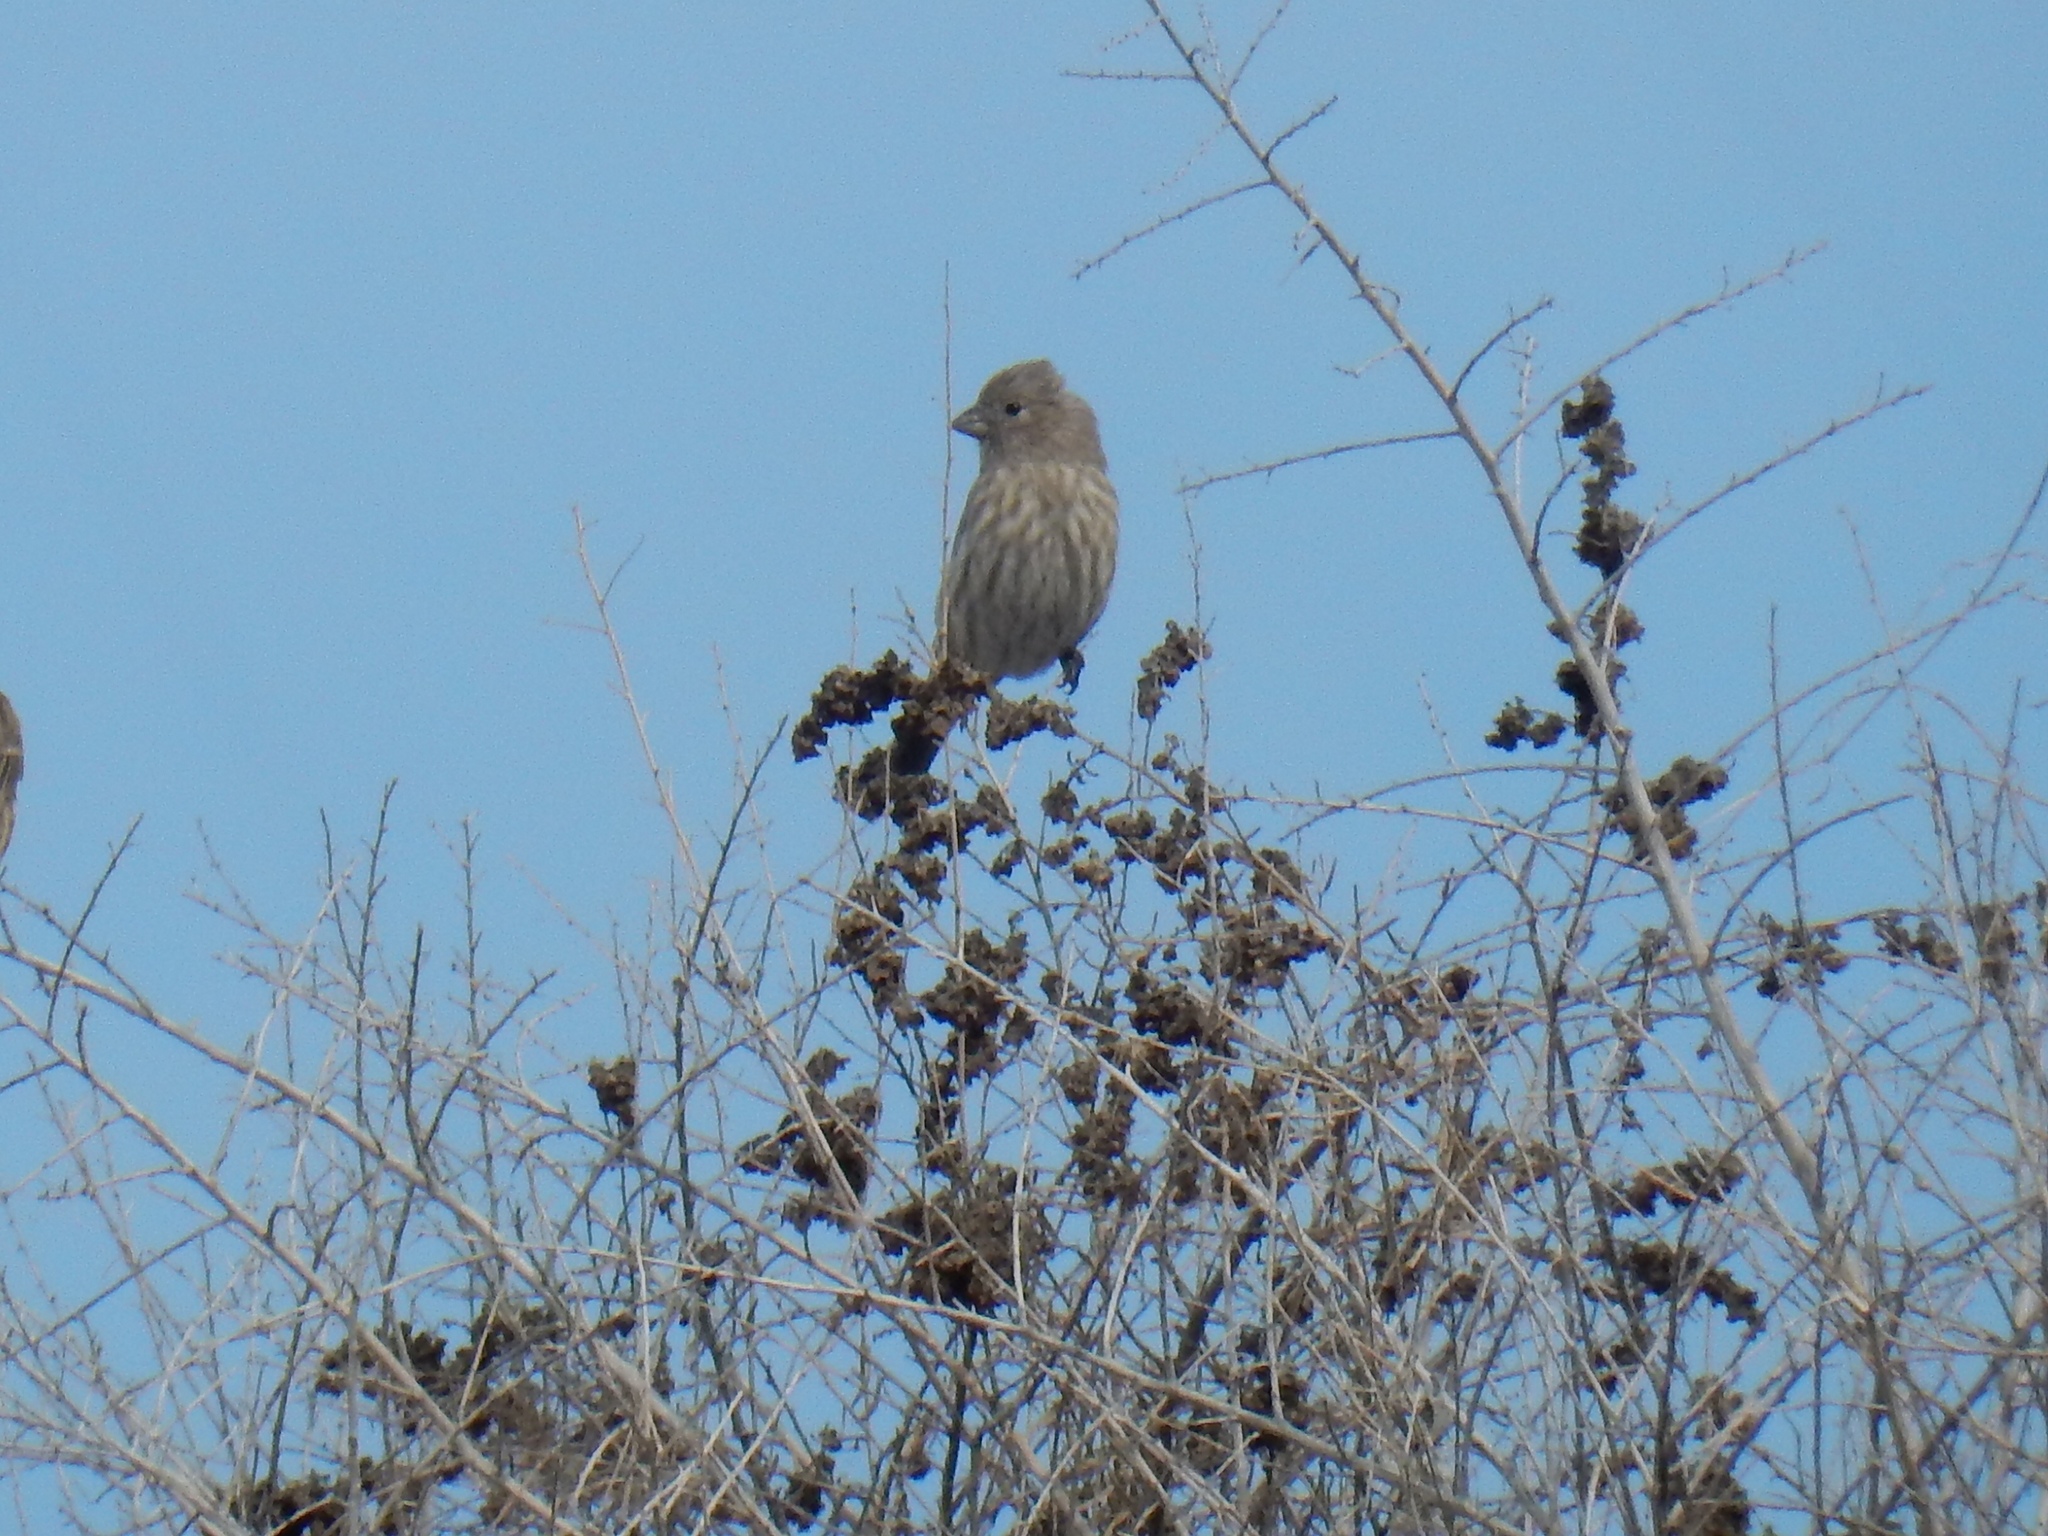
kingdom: Animalia
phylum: Chordata
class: Aves
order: Passeriformes
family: Fringillidae
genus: Haemorhous
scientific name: Haemorhous mexicanus
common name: House finch
